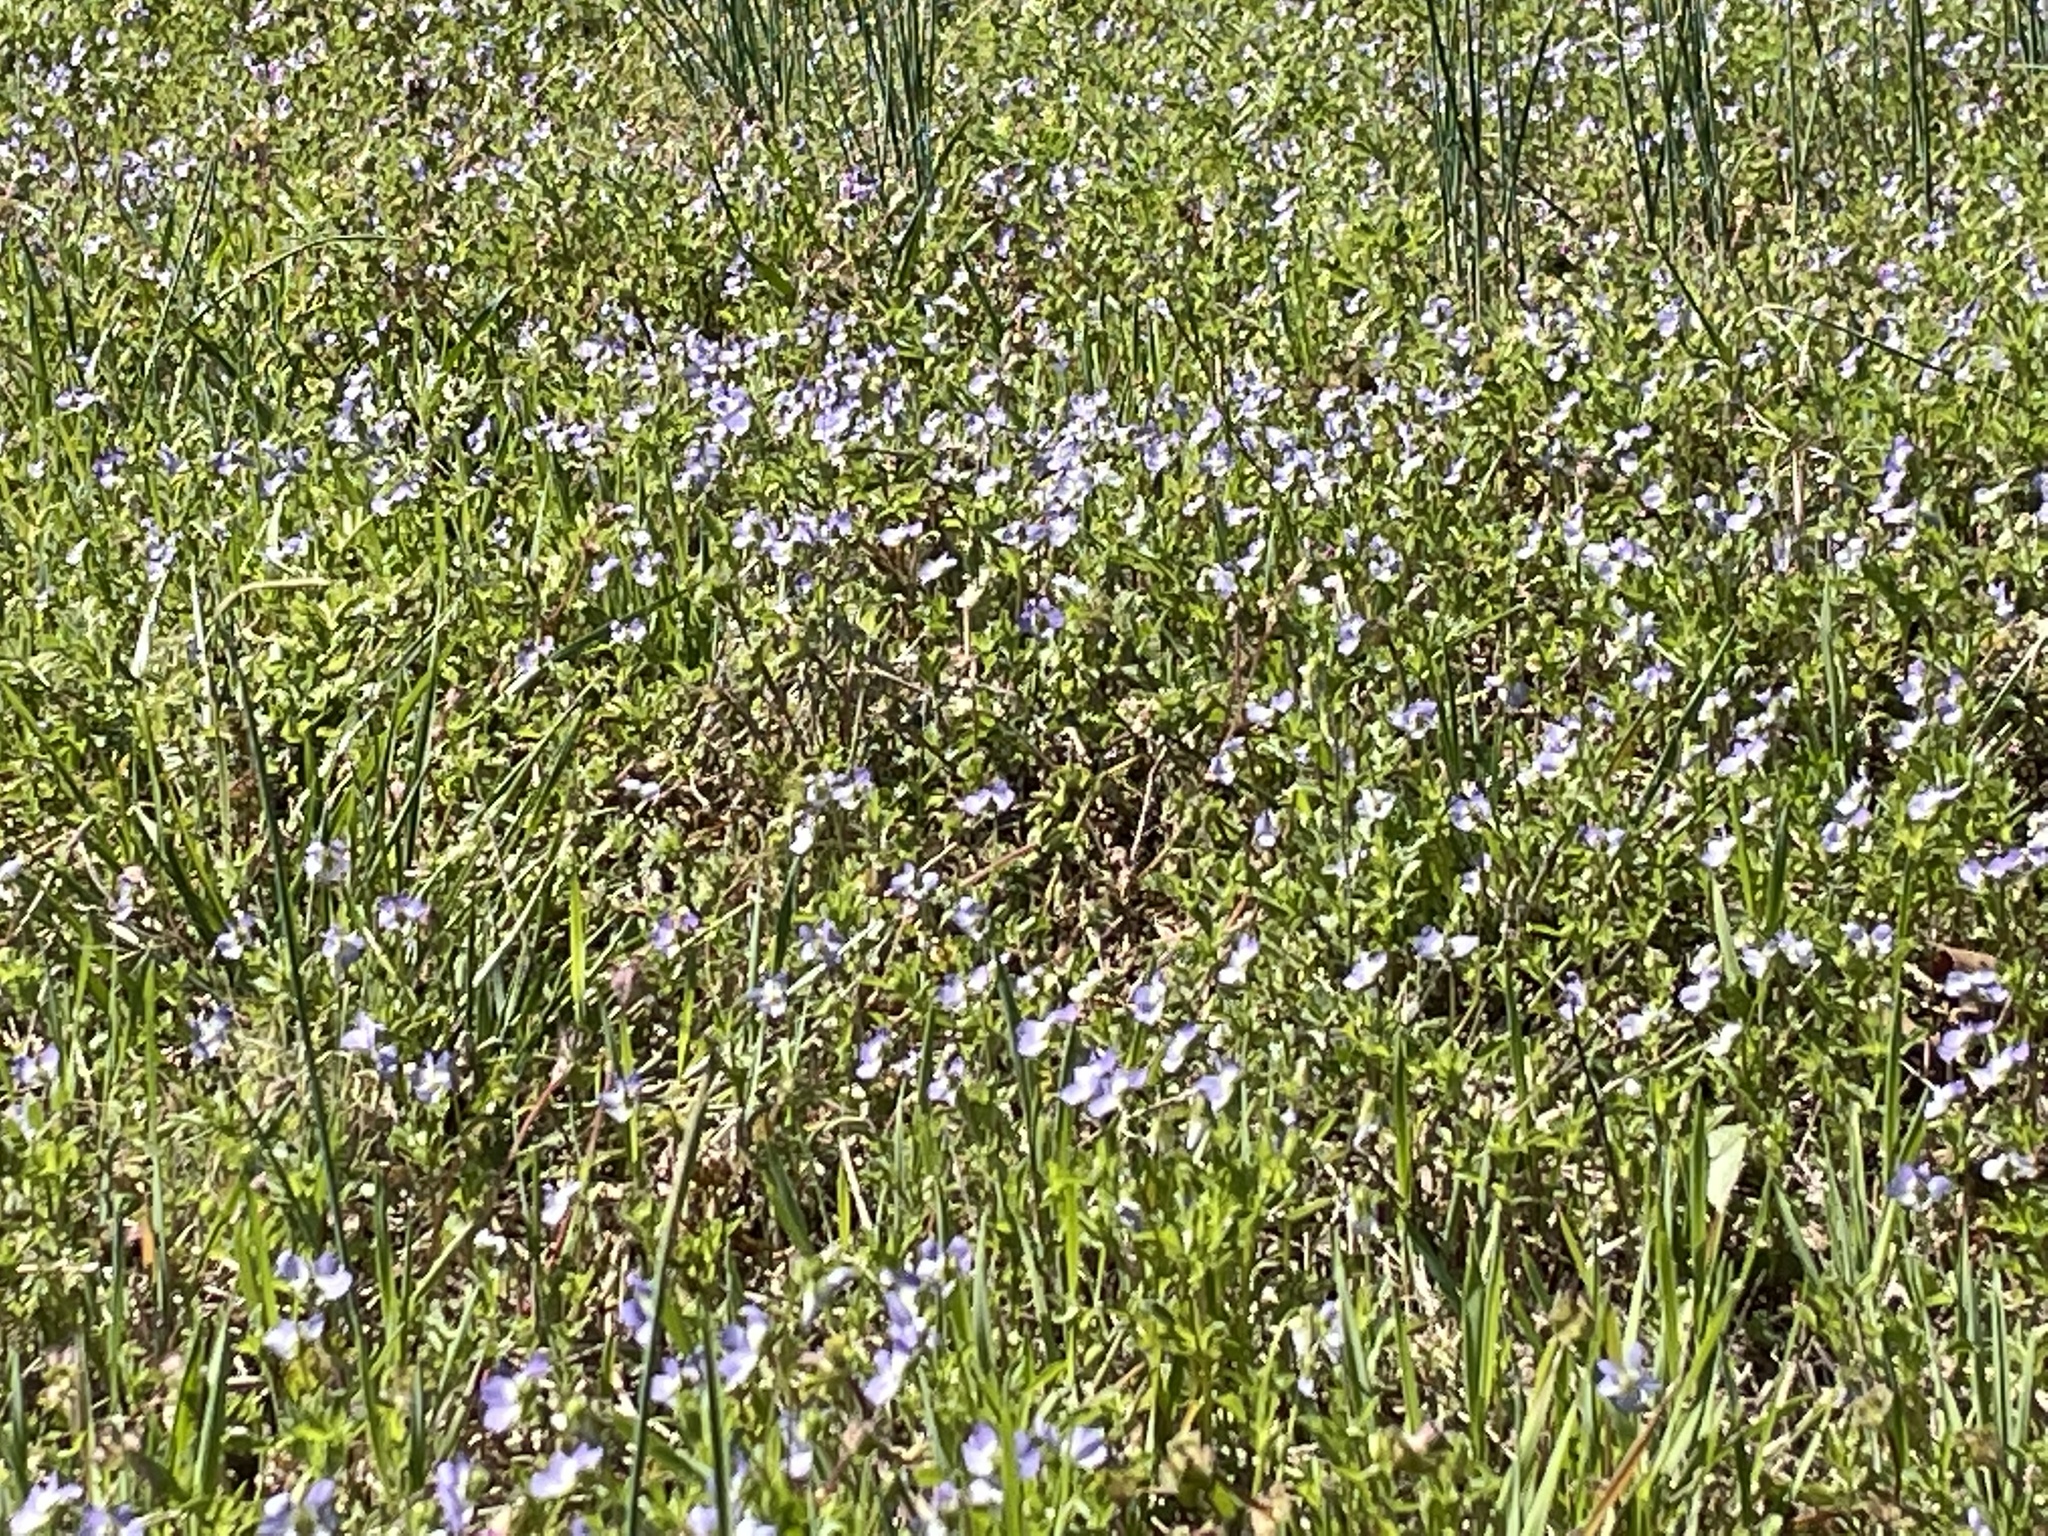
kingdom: Plantae
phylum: Tracheophyta
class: Magnoliopsida
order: Malpighiales
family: Violaceae
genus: Viola
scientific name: Viola rafinesquei
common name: American field pansy
